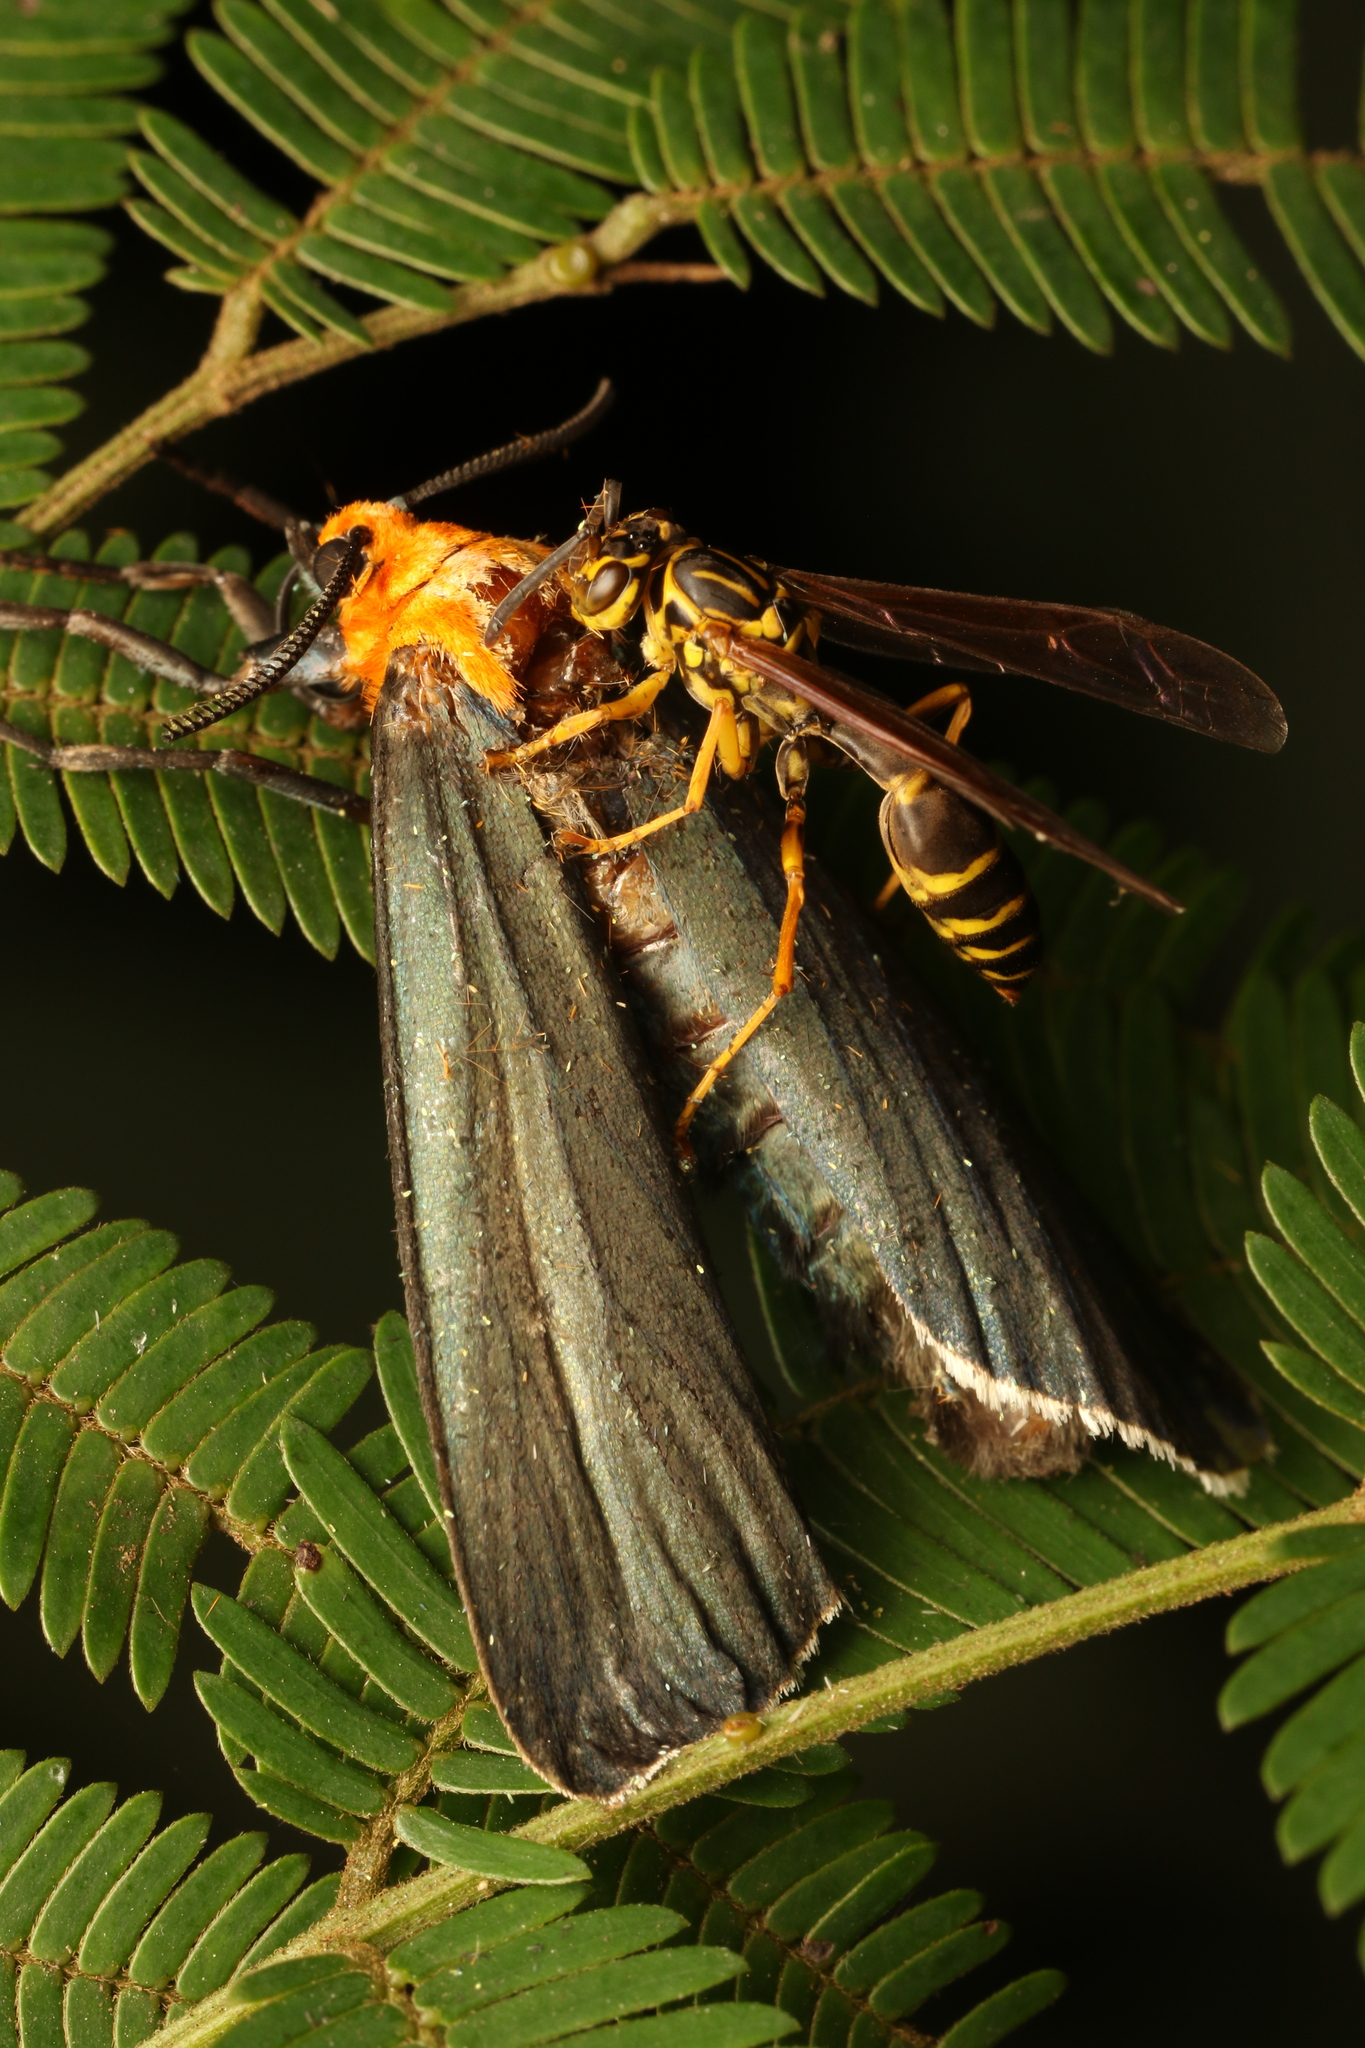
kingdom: Animalia
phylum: Arthropoda
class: Insecta
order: Lepidoptera
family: Erebidae
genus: Apistosia
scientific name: Apistosia judas
